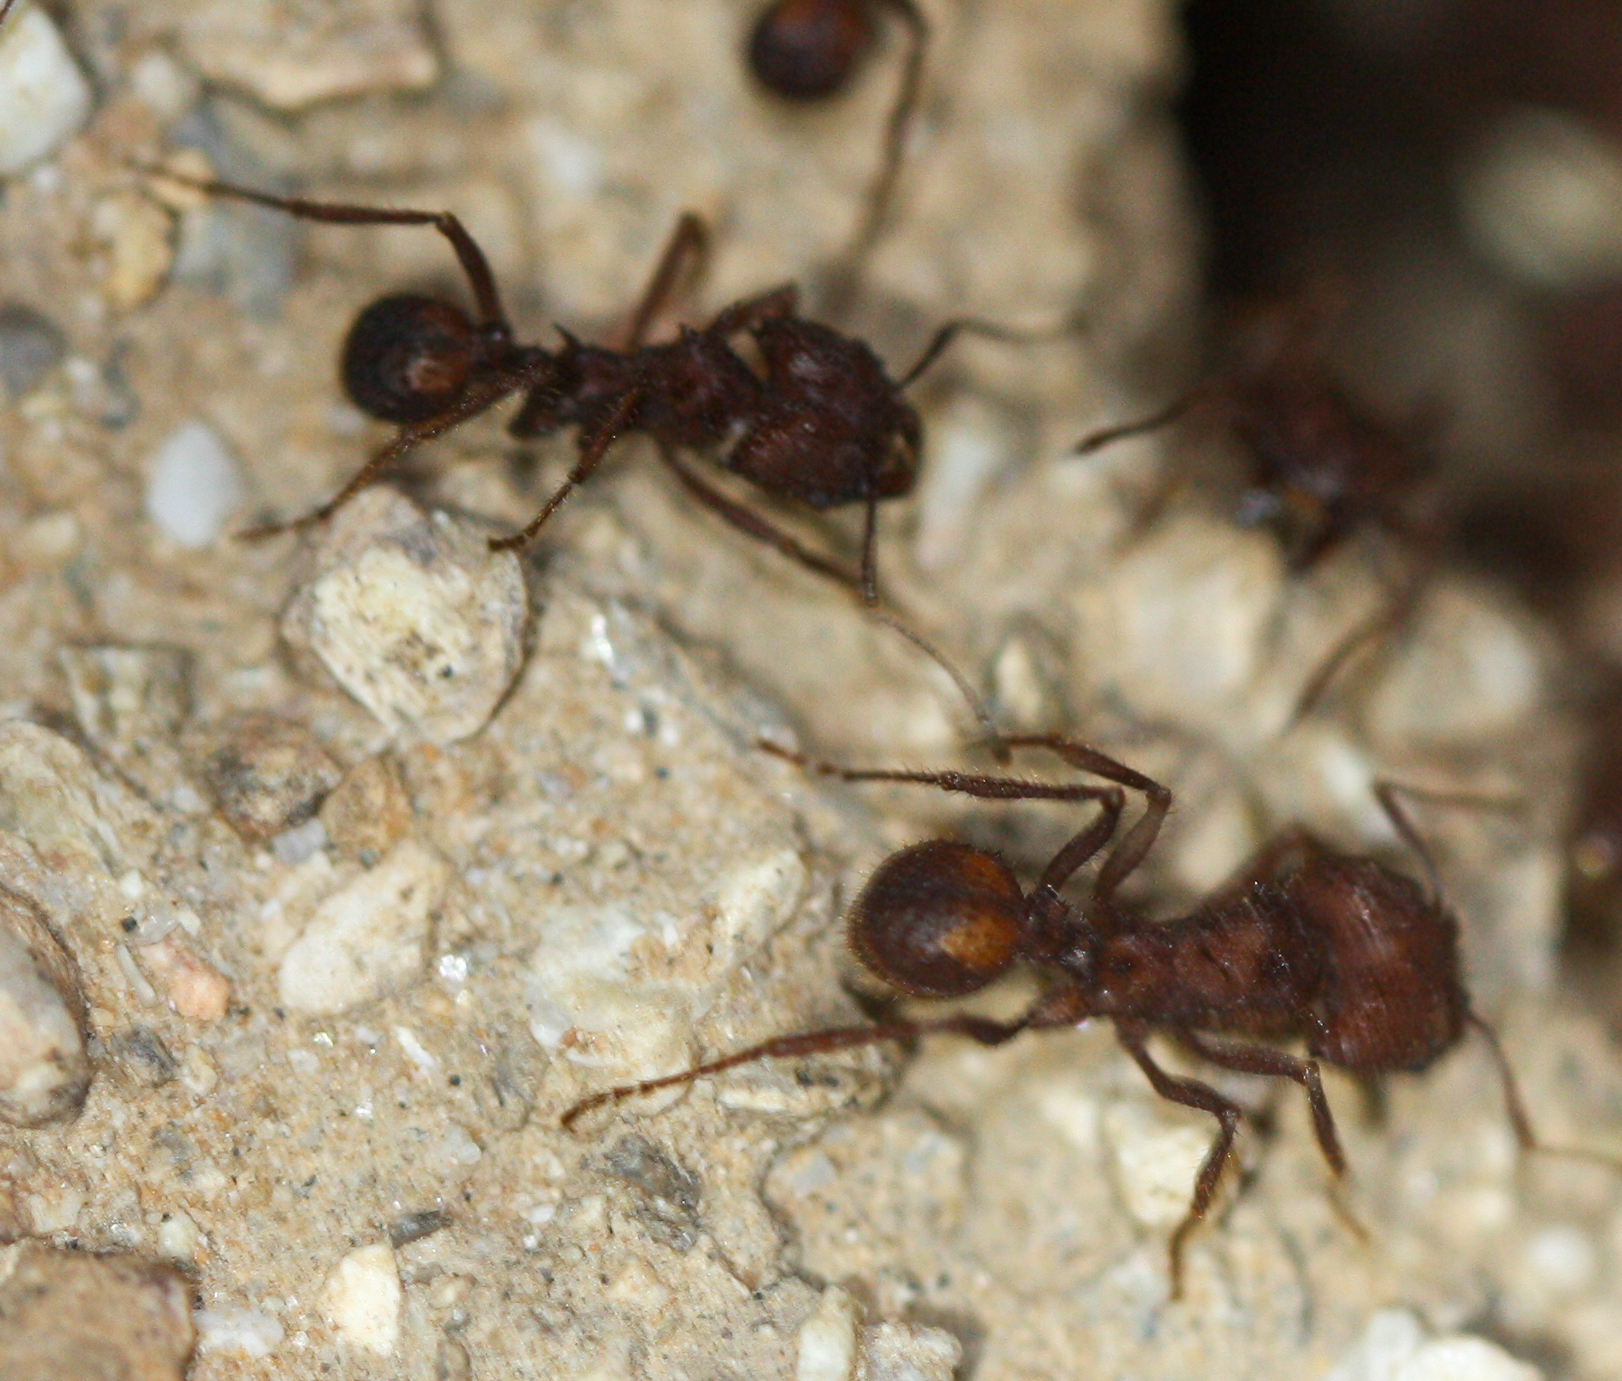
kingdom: Animalia
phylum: Arthropoda
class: Insecta
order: Hymenoptera
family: Formicidae
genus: Acromyrmex
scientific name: Acromyrmex versicolor
